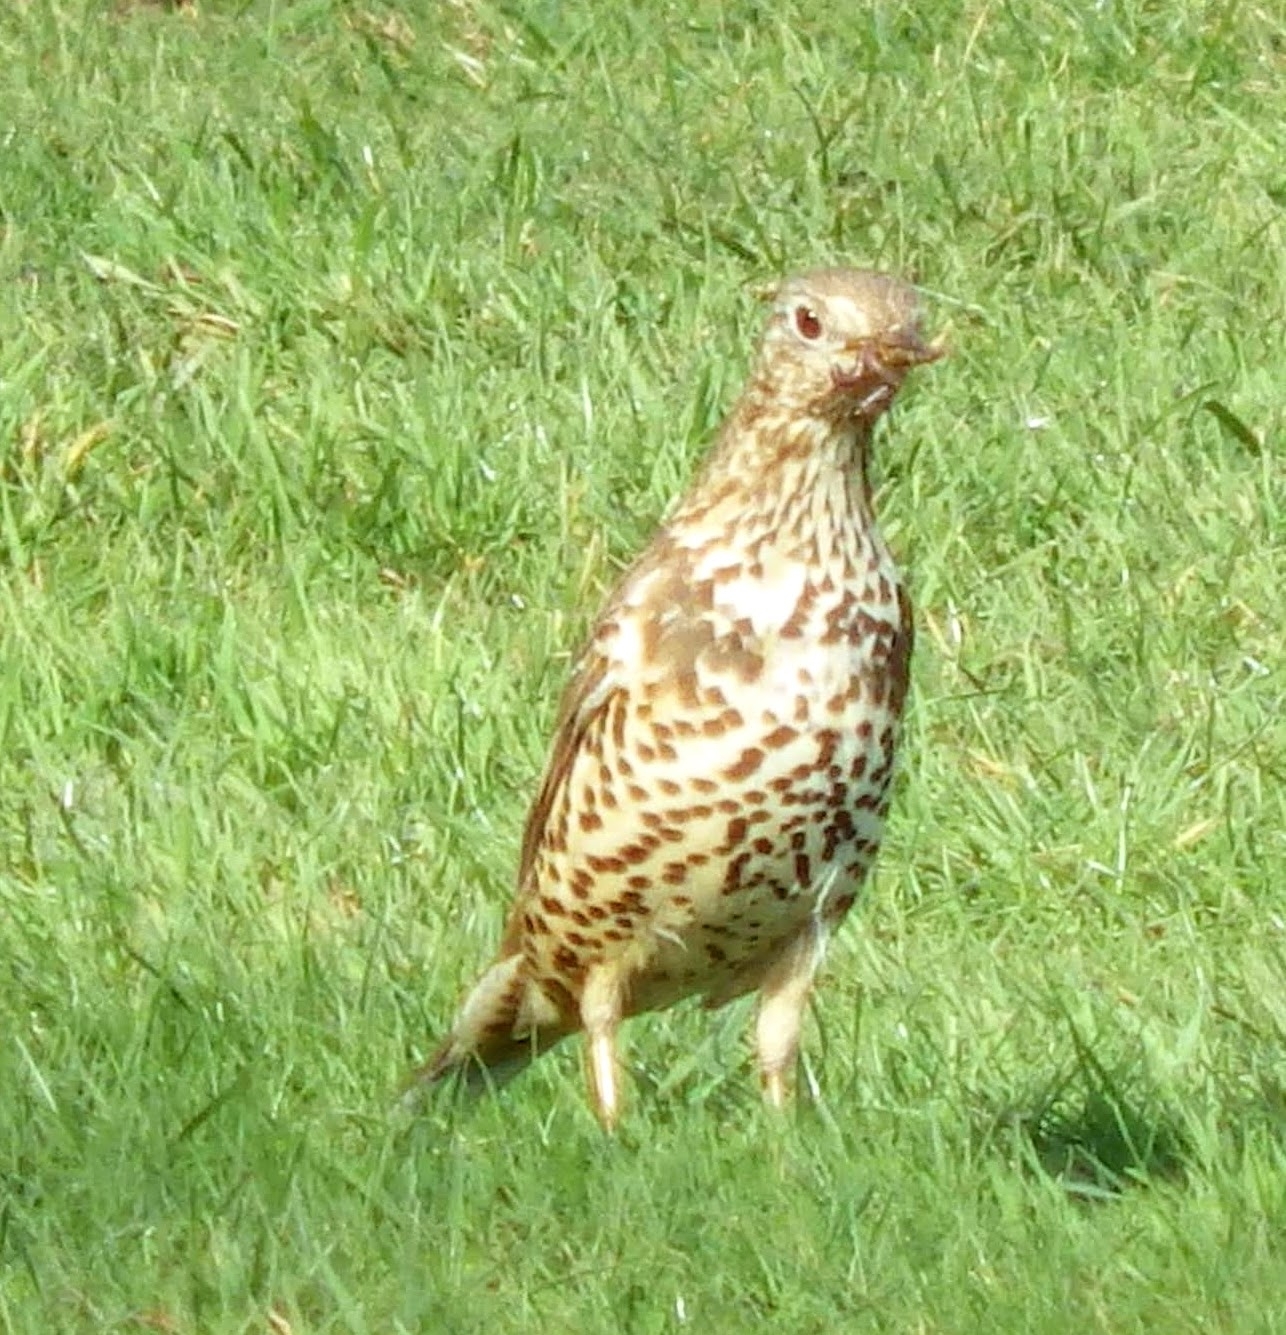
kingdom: Animalia
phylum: Chordata
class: Aves
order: Passeriformes
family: Turdidae
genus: Turdus
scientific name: Turdus viscivorus
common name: Mistle thrush
